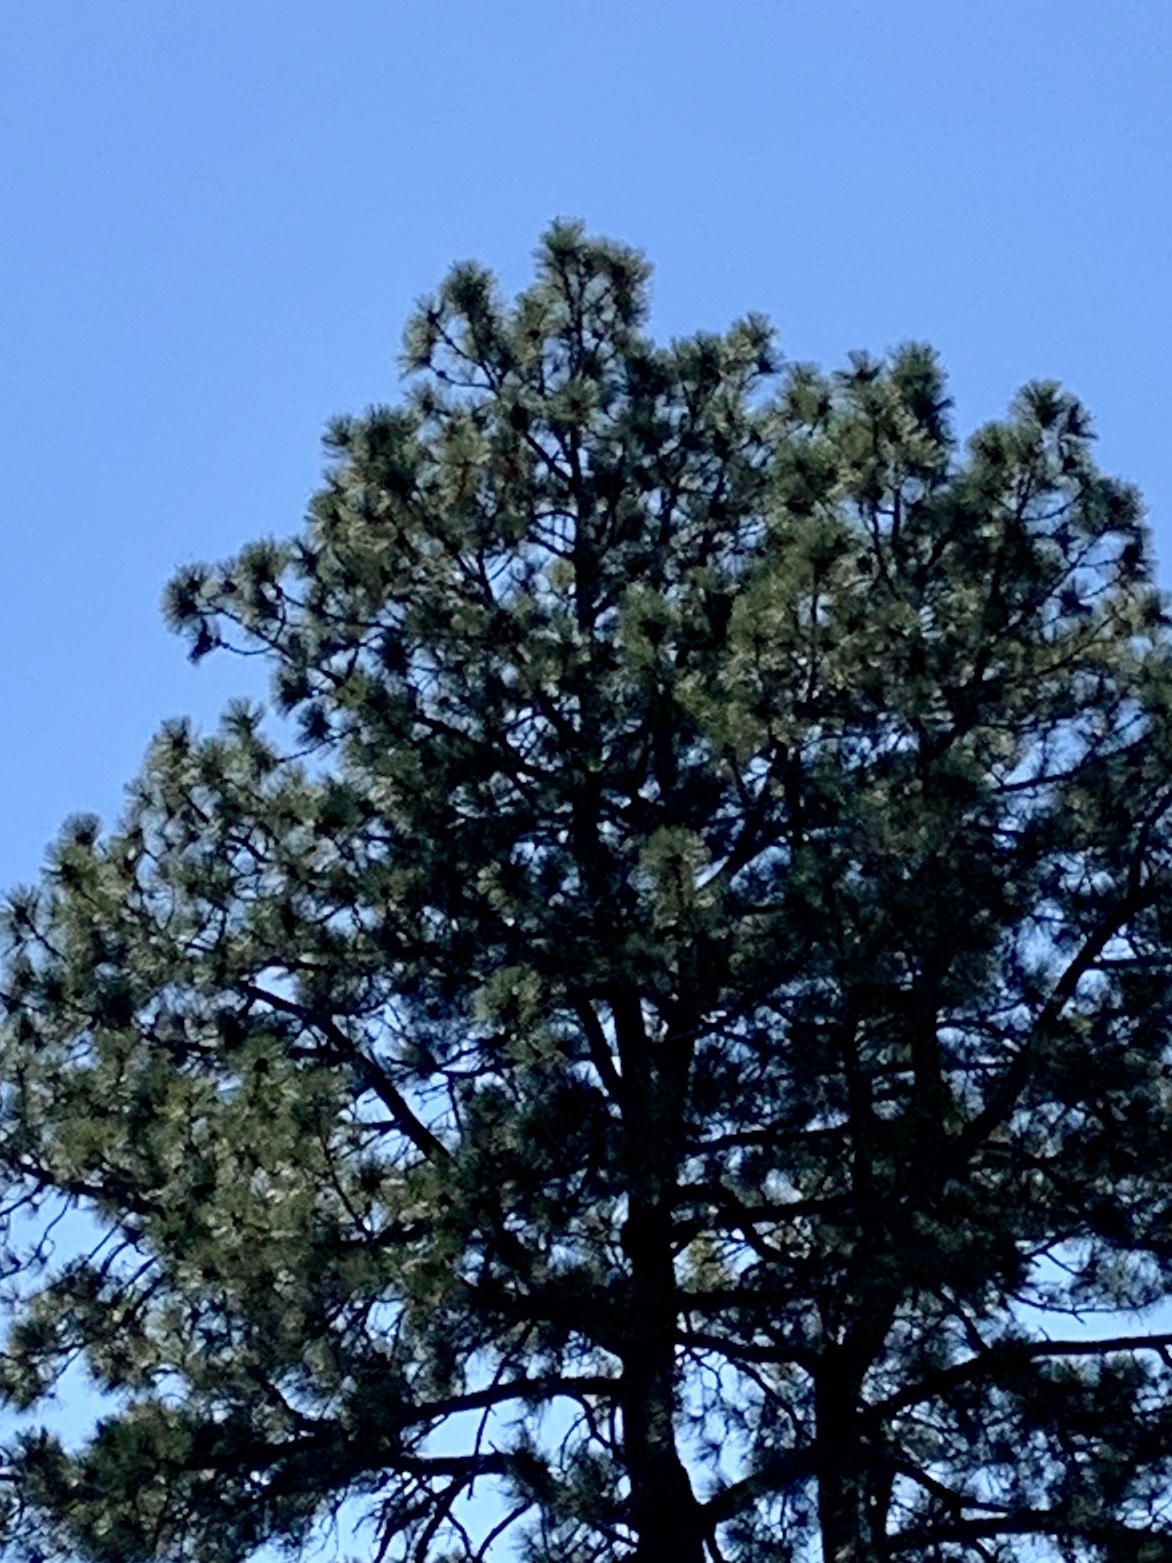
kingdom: Plantae
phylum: Tracheophyta
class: Pinopsida
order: Pinales
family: Pinaceae
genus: Pinus
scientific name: Pinus ponderosa
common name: Western yellow-pine
